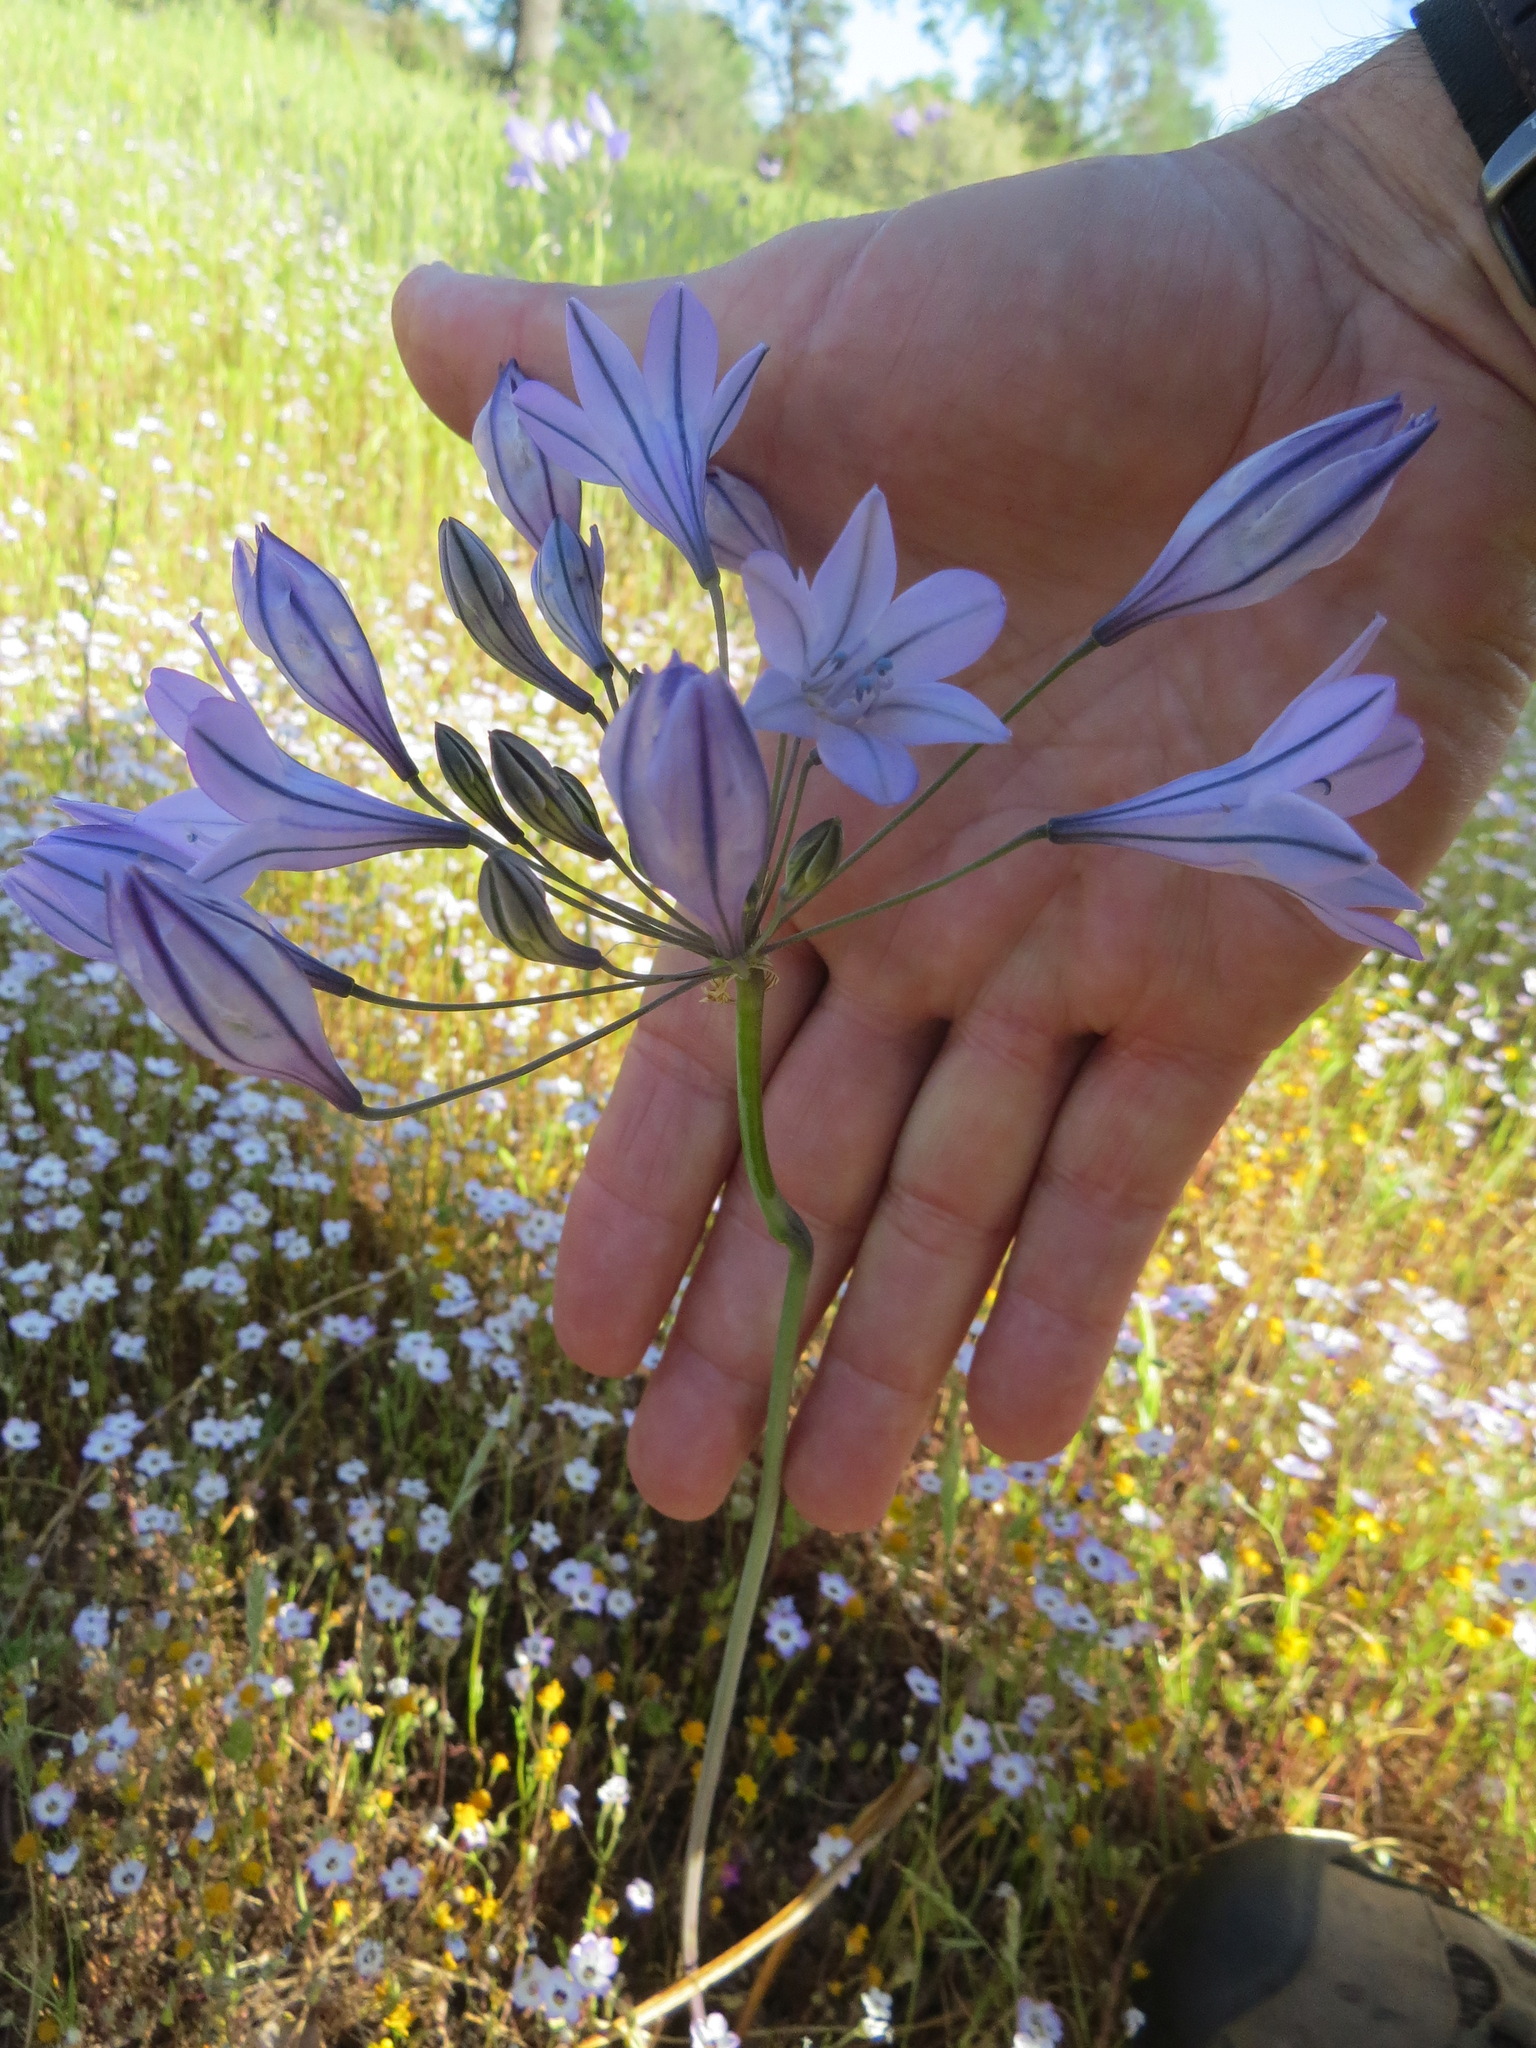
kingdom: Plantae
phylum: Tracheophyta
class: Liliopsida
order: Asparagales
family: Asparagaceae
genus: Triteleia
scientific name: Triteleia laxa
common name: Triplet-lily
